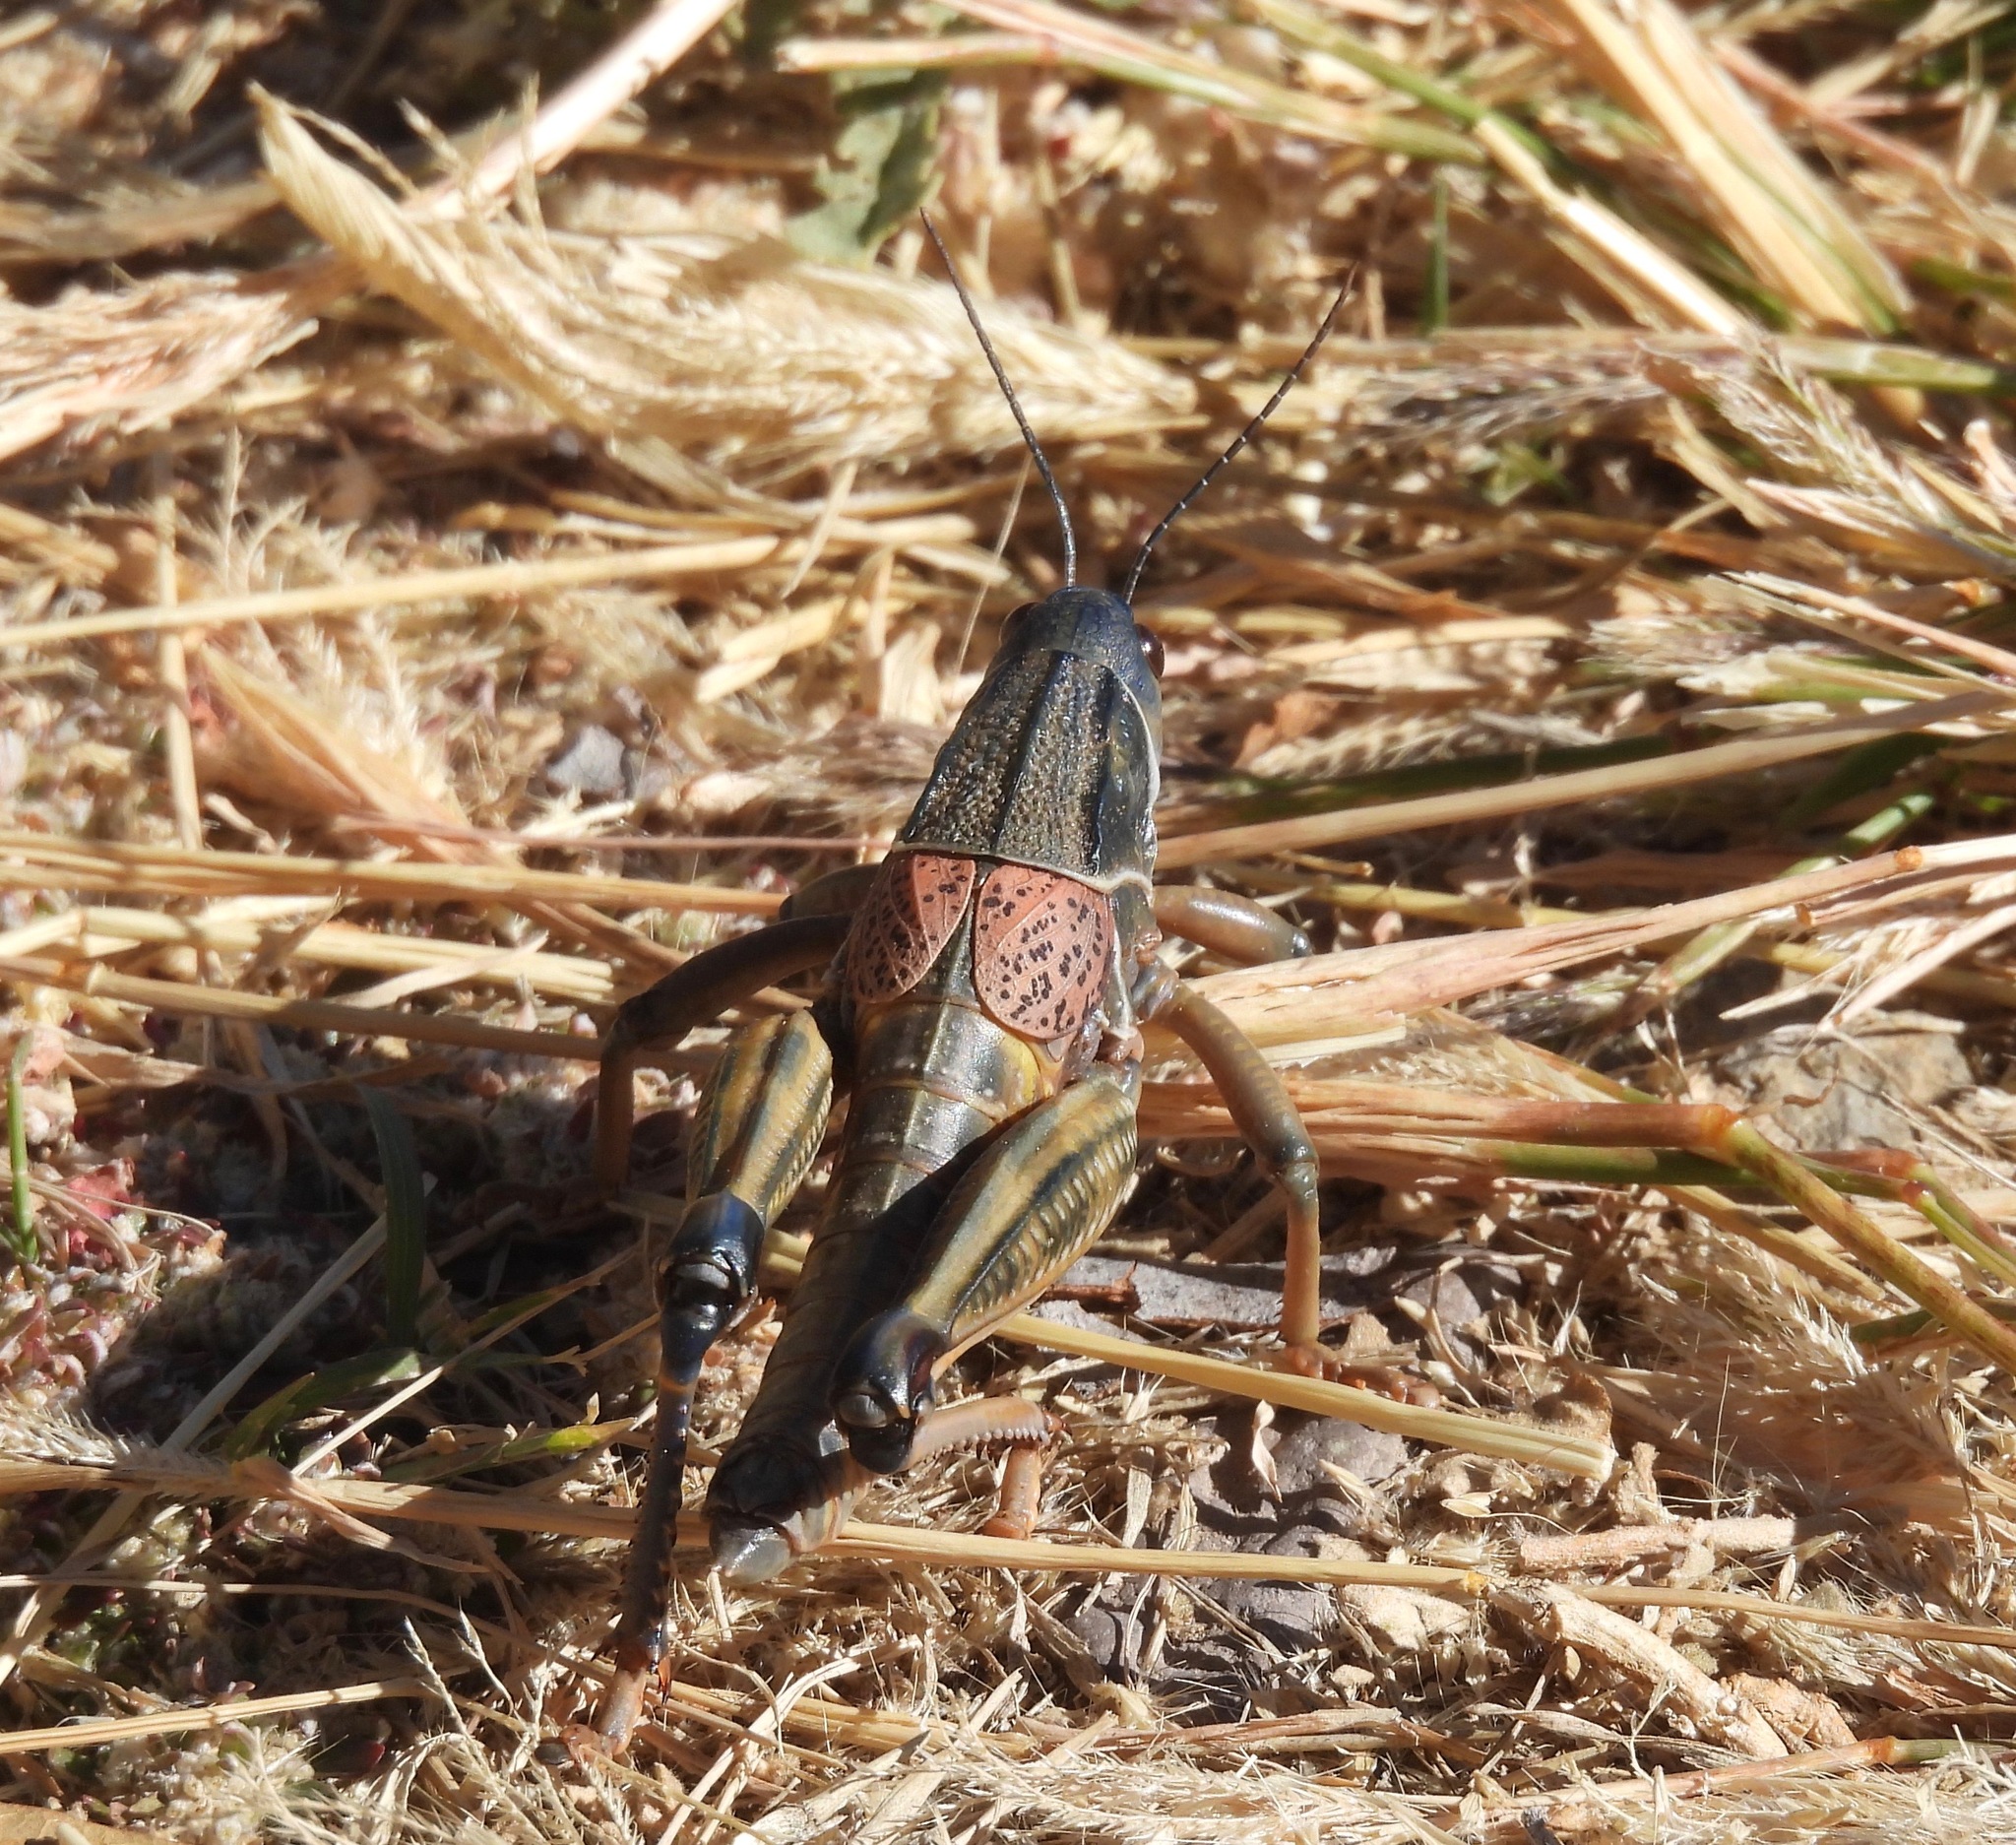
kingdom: Animalia
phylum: Arthropoda
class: Insecta
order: Orthoptera
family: Romaleidae
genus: Brachystola
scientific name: Brachystola magna
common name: Plains lubber grasshopper
